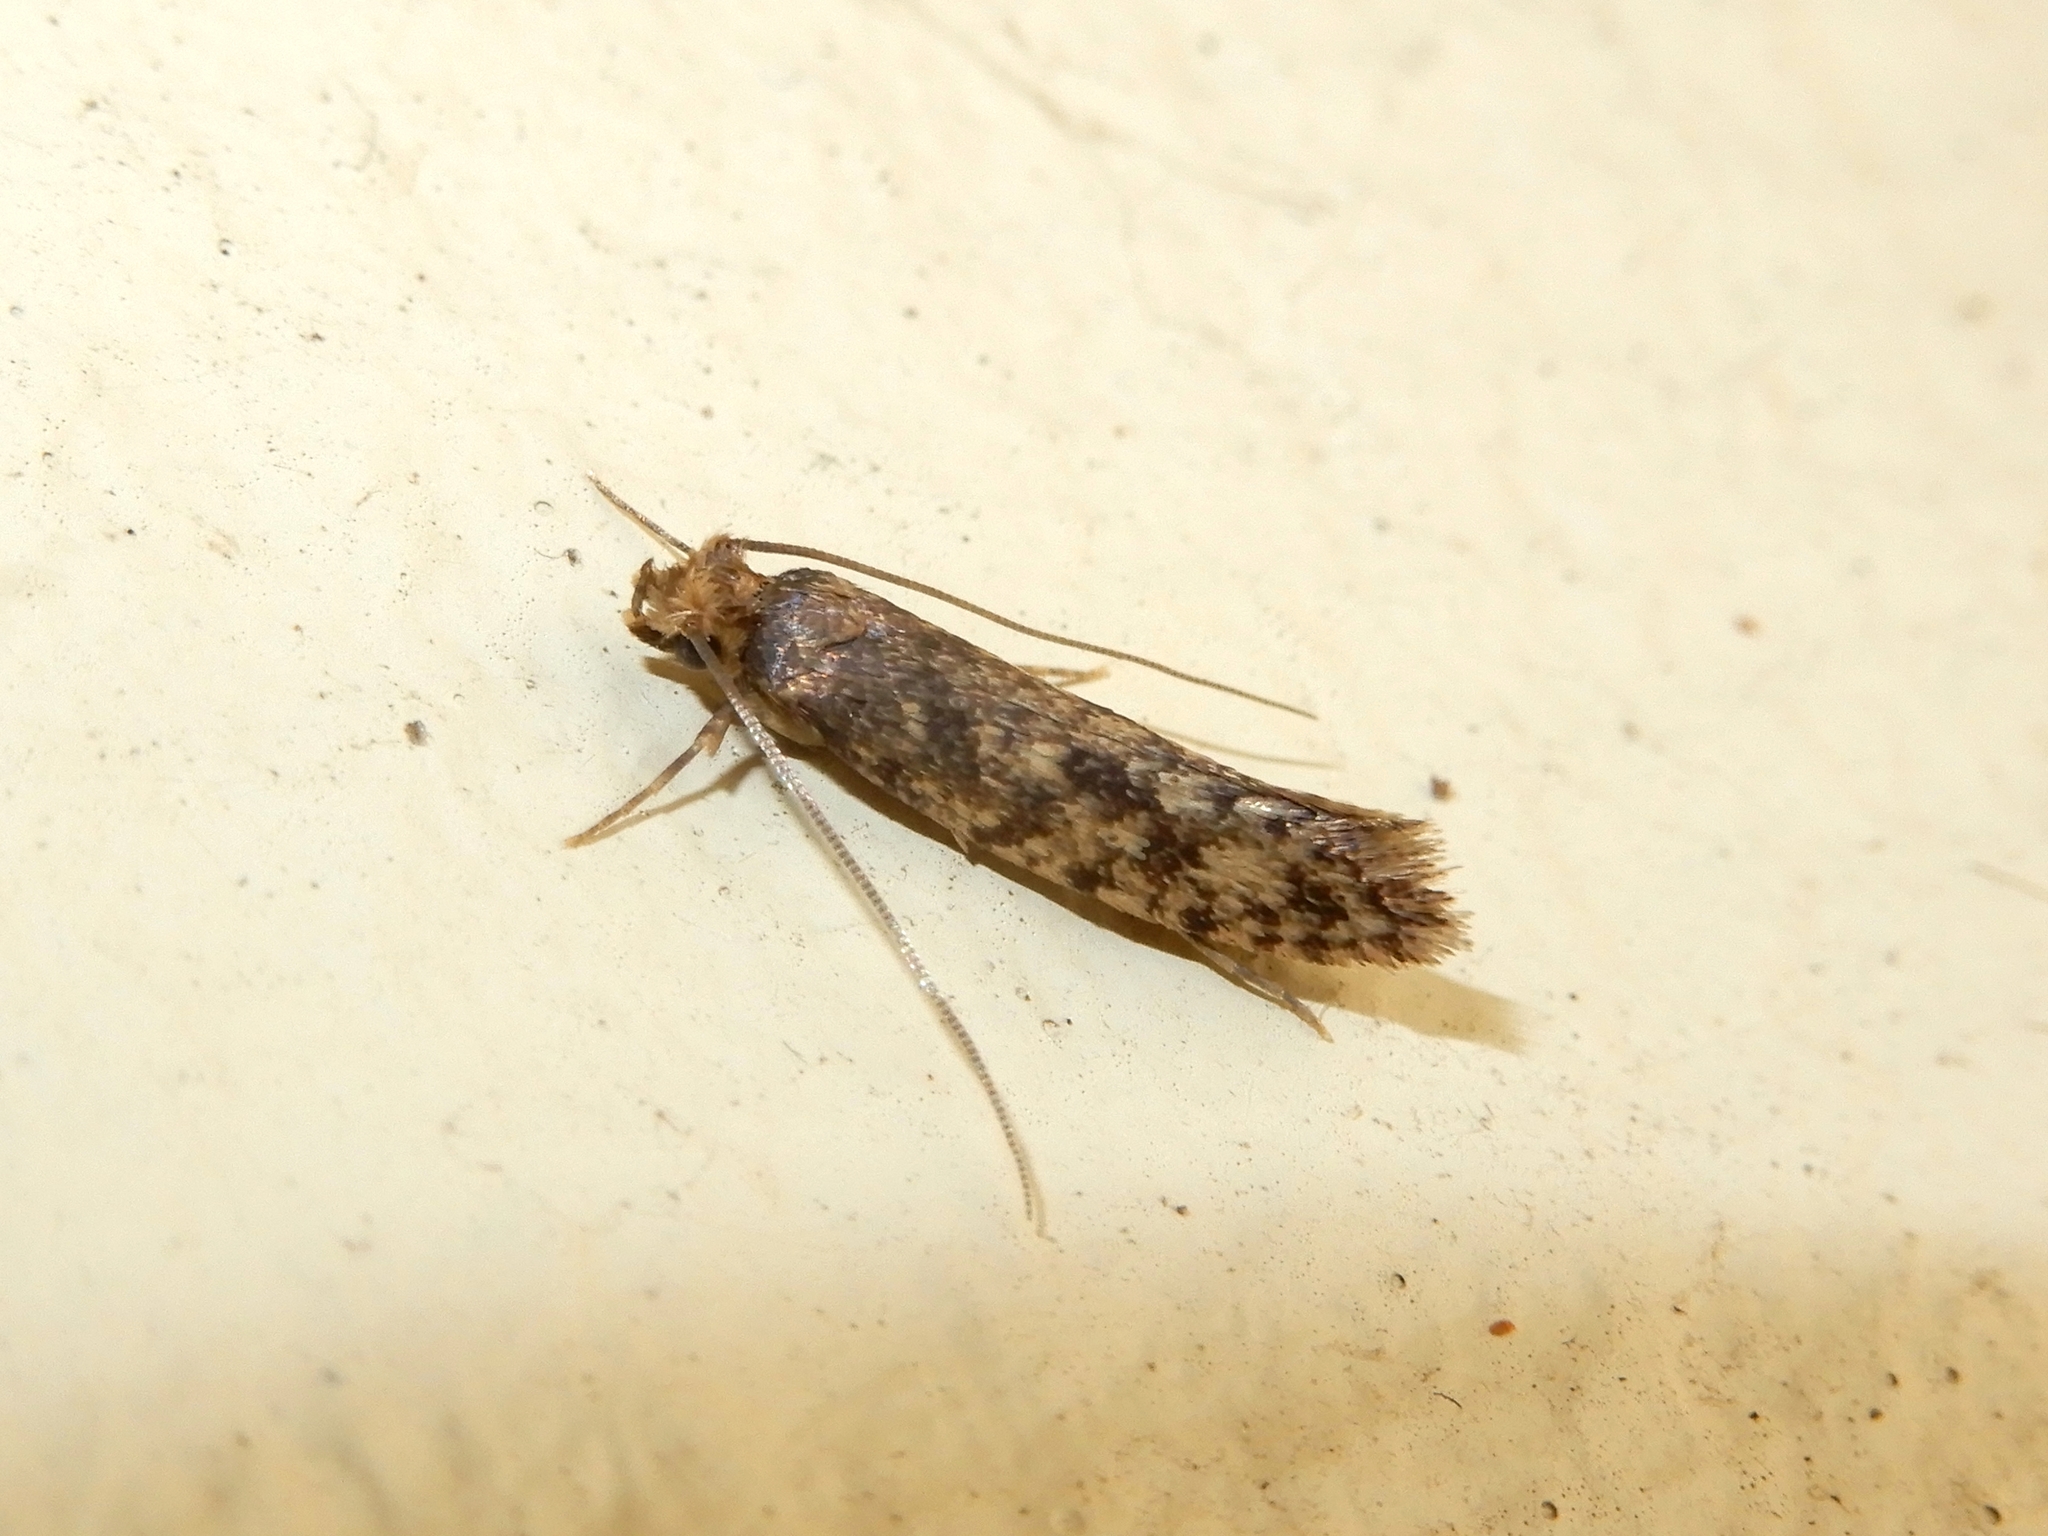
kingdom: Animalia
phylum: Arthropoda
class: Insecta
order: Lepidoptera
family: Tineidae
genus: Lindera
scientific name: Lindera tessellatella
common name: Moth
